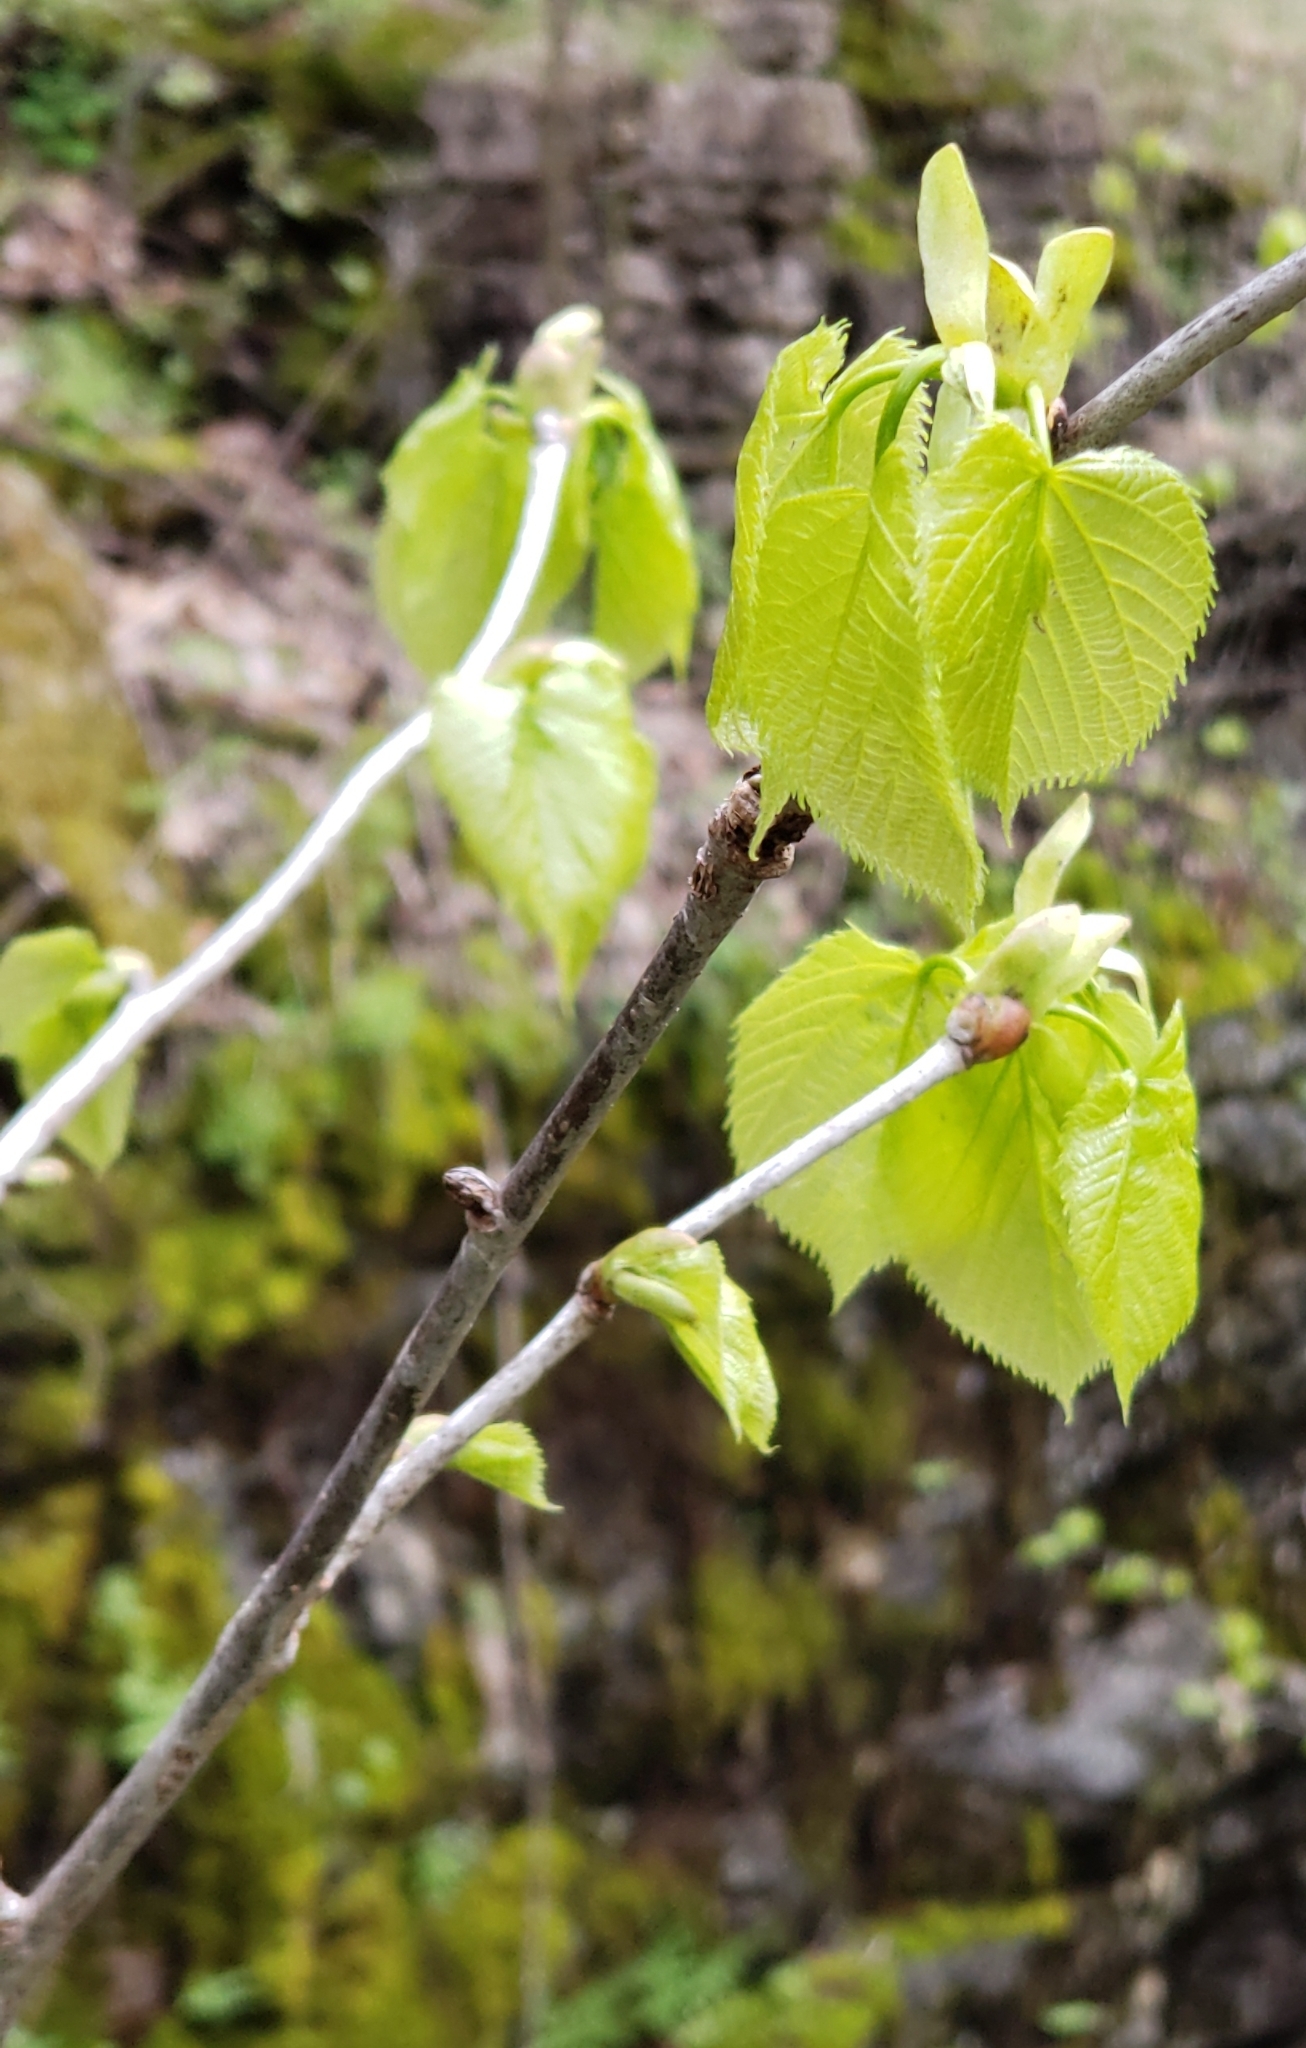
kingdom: Plantae
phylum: Tracheophyta
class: Magnoliopsida
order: Malvales
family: Malvaceae
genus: Tilia
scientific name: Tilia americana
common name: Basswood
